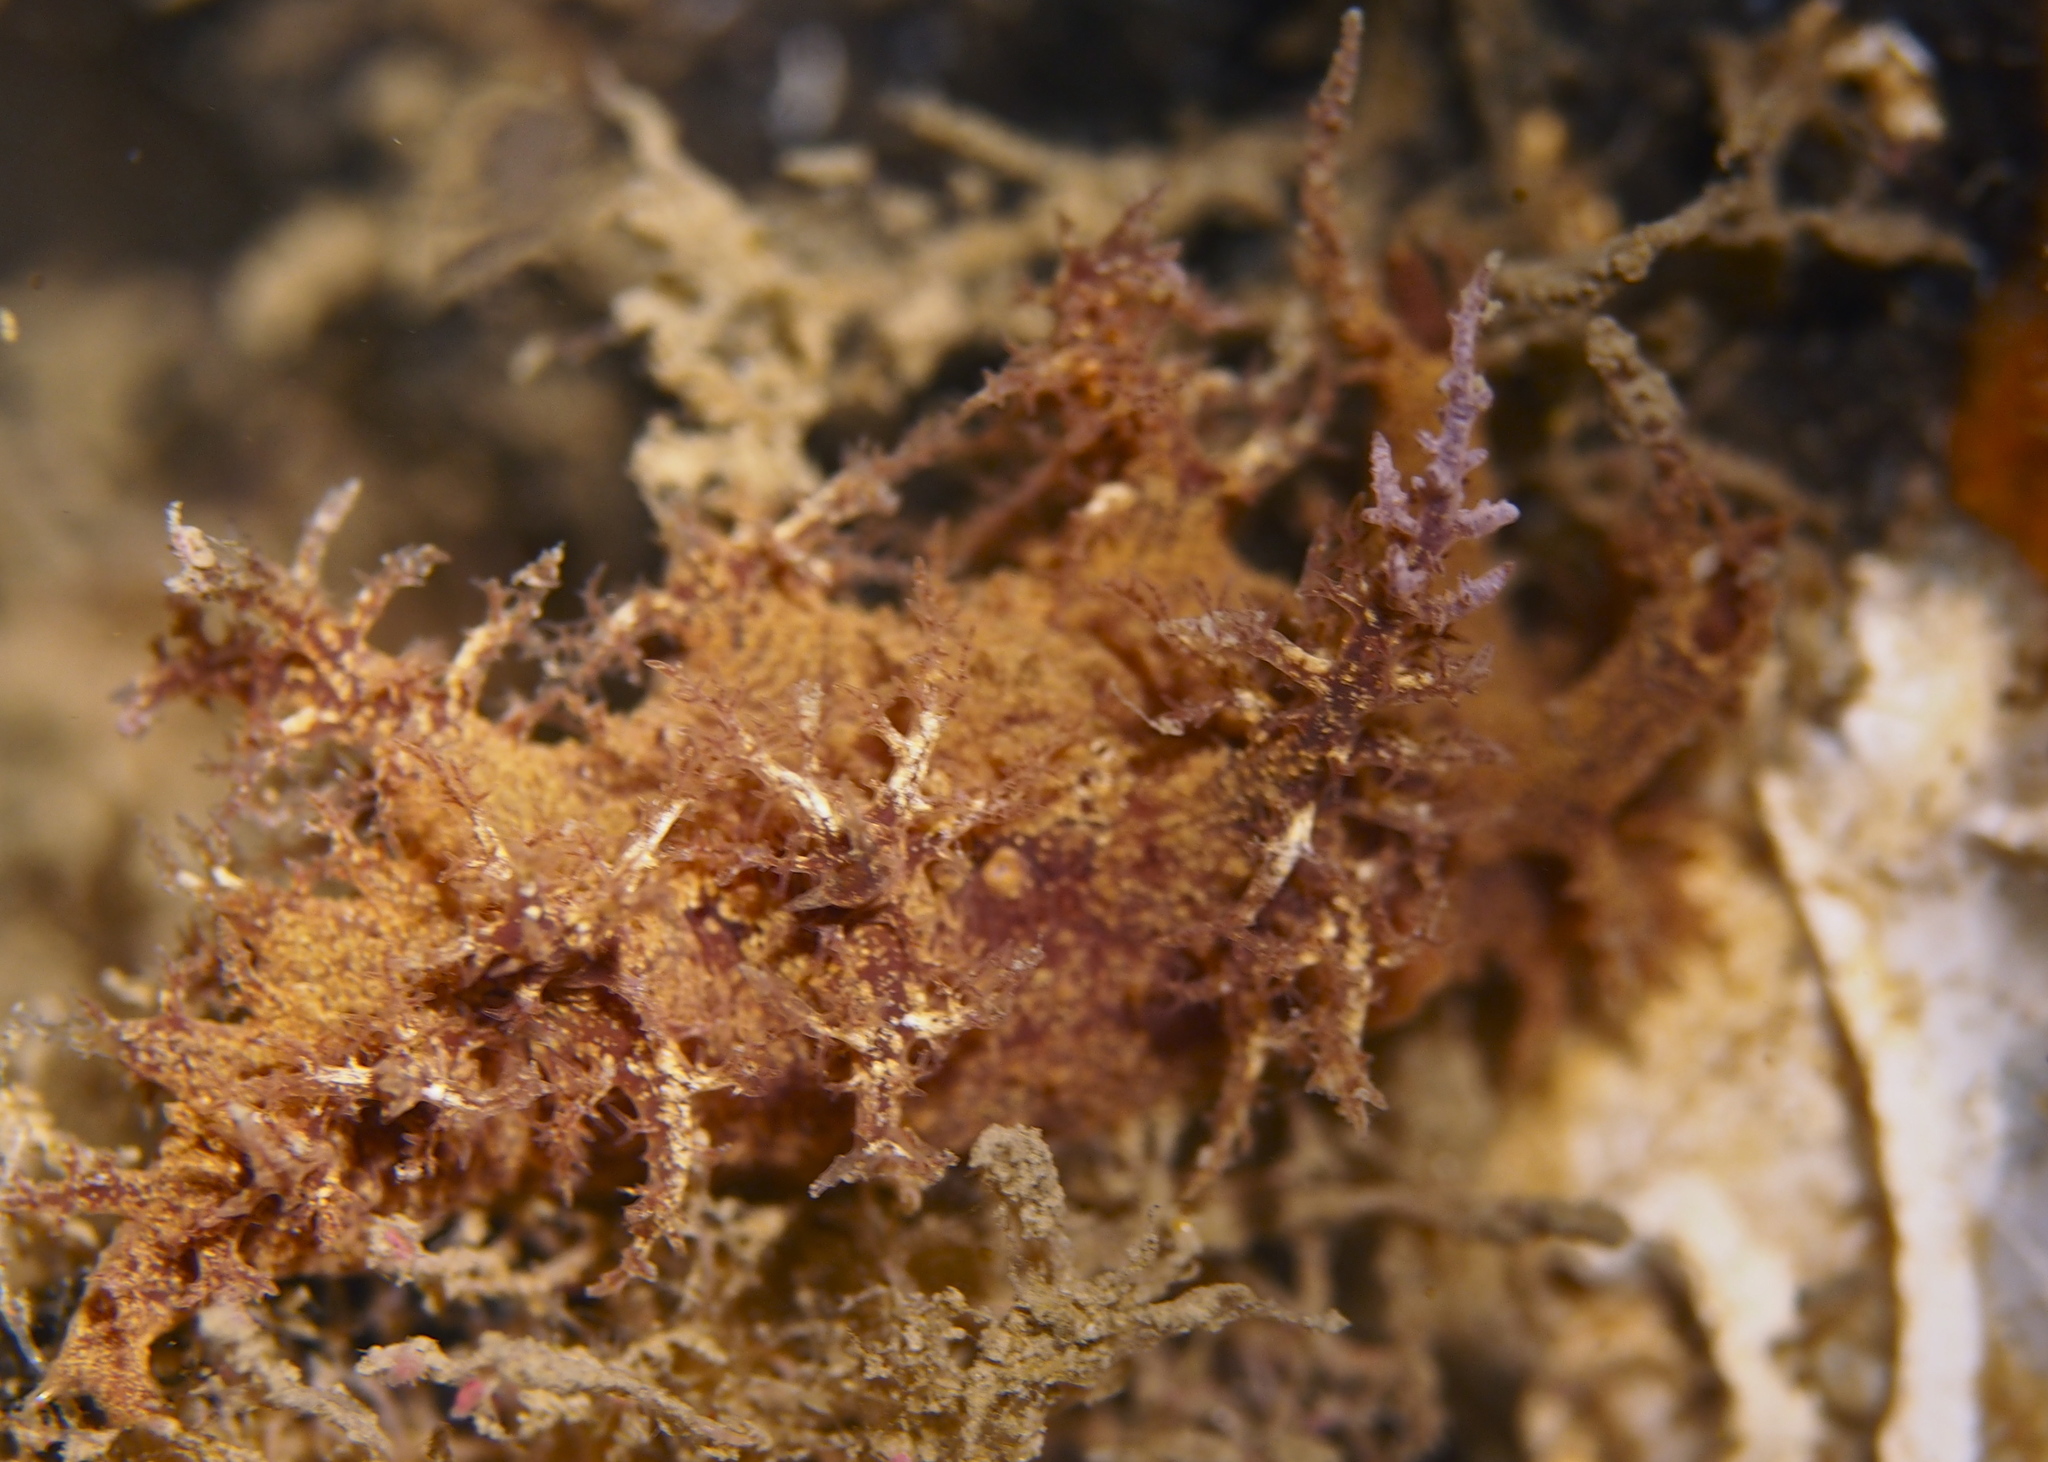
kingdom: Animalia
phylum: Mollusca
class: Gastropoda
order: Nudibranchia
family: Dendronotidae
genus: Dendronotus
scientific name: Dendronotus frondosus
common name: Bushy-backed nudibranch
